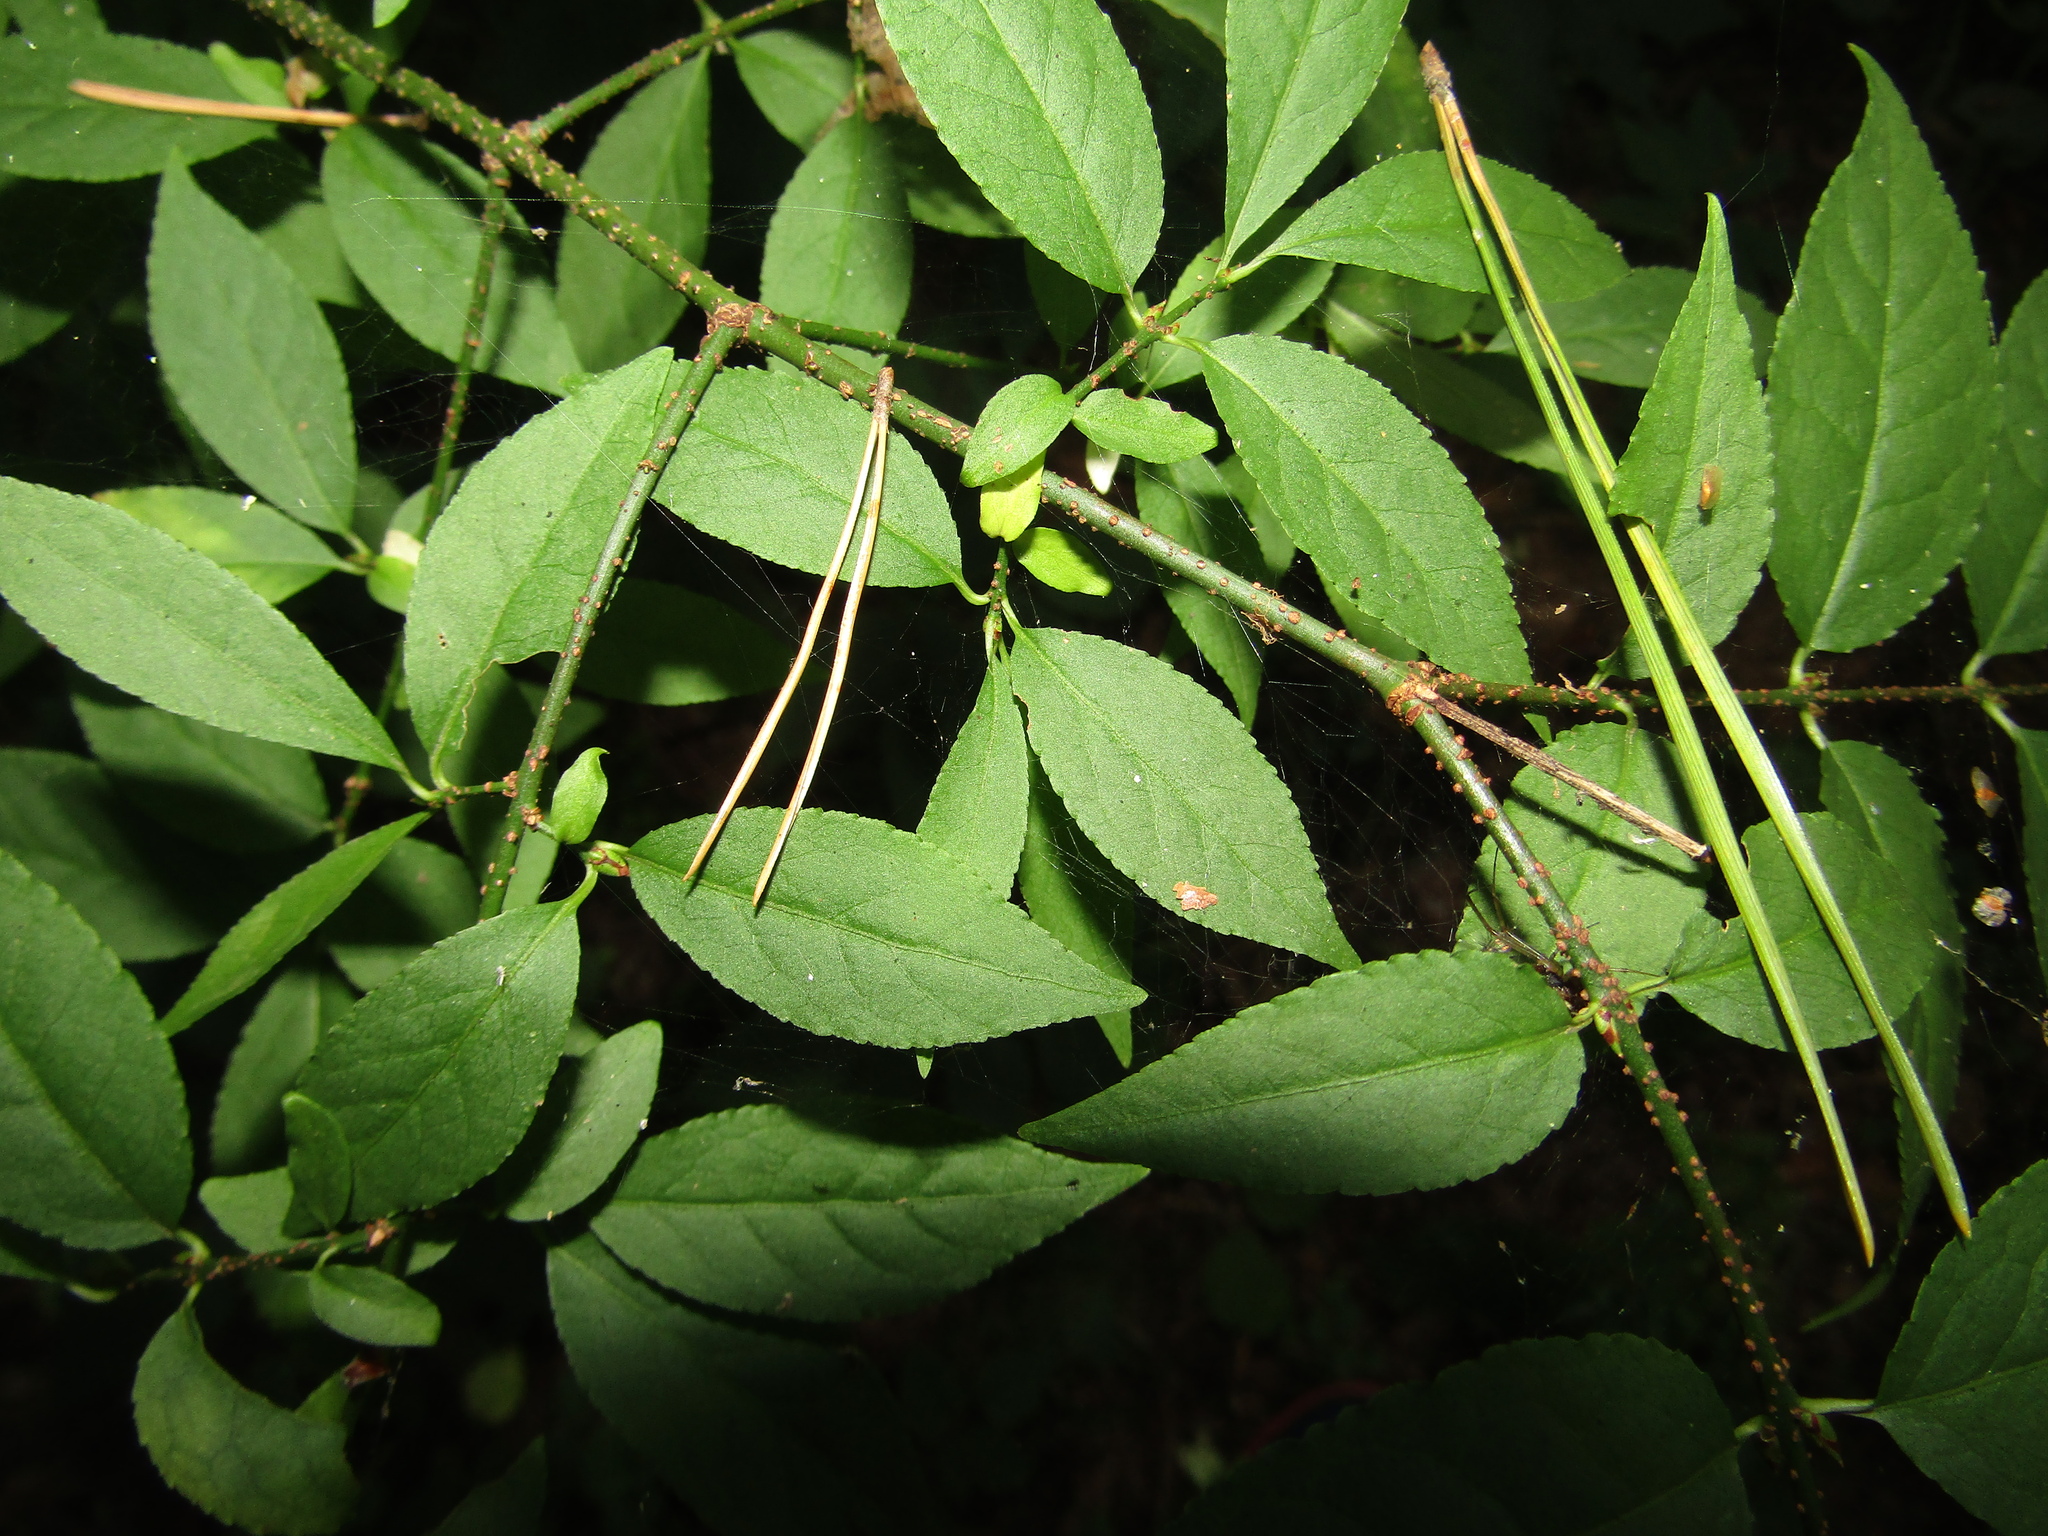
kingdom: Plantae
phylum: Tracheophyta
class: Magnoliopsida
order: Celastrales
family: Celastraceae
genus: Euonymus
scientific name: Euonymus verrucosus
